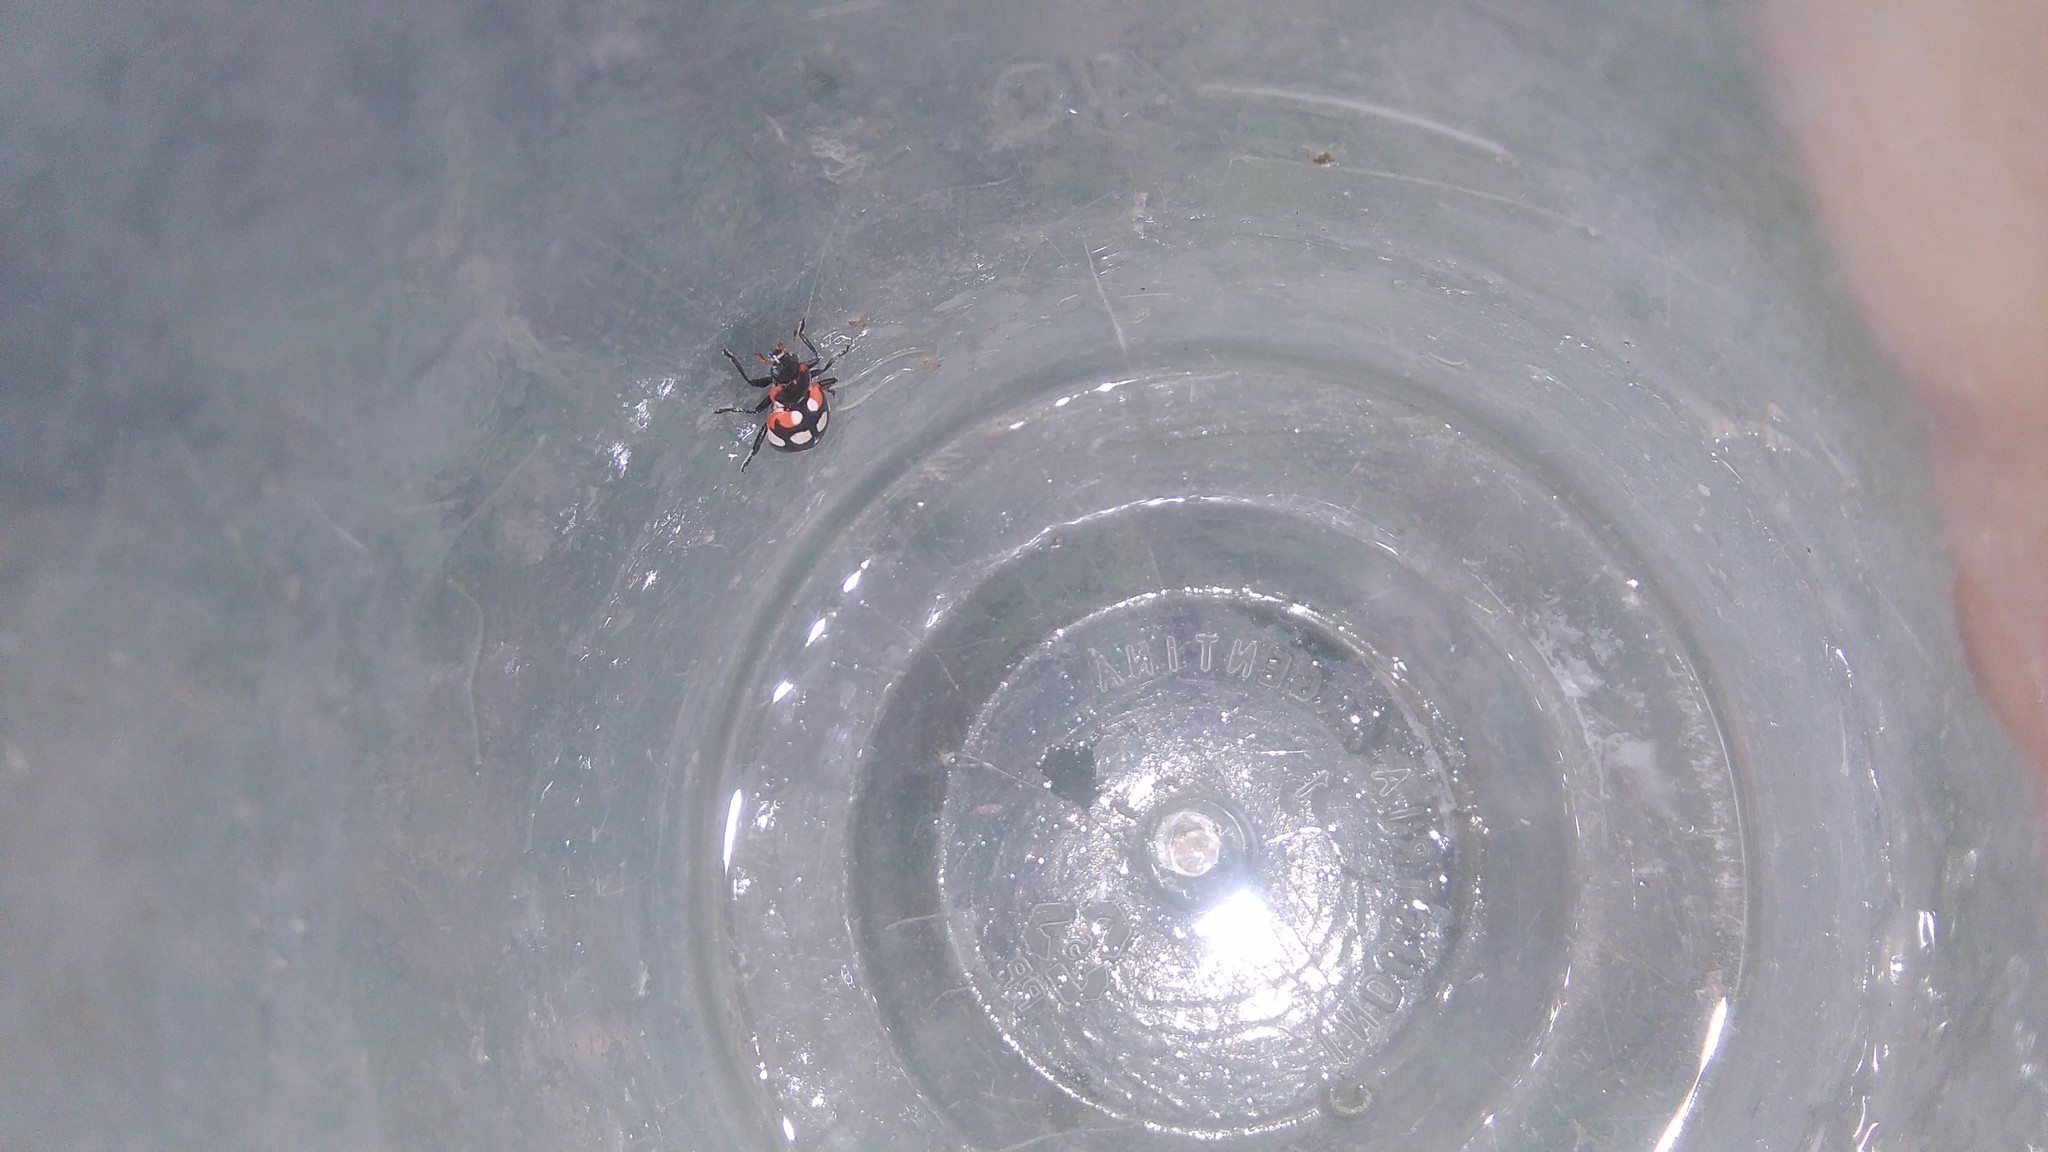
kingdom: Animalia
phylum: Arthropoda
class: Insecta
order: Coleoptera
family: Coccinellidae
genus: Eriopis
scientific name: Eriopis connexa
